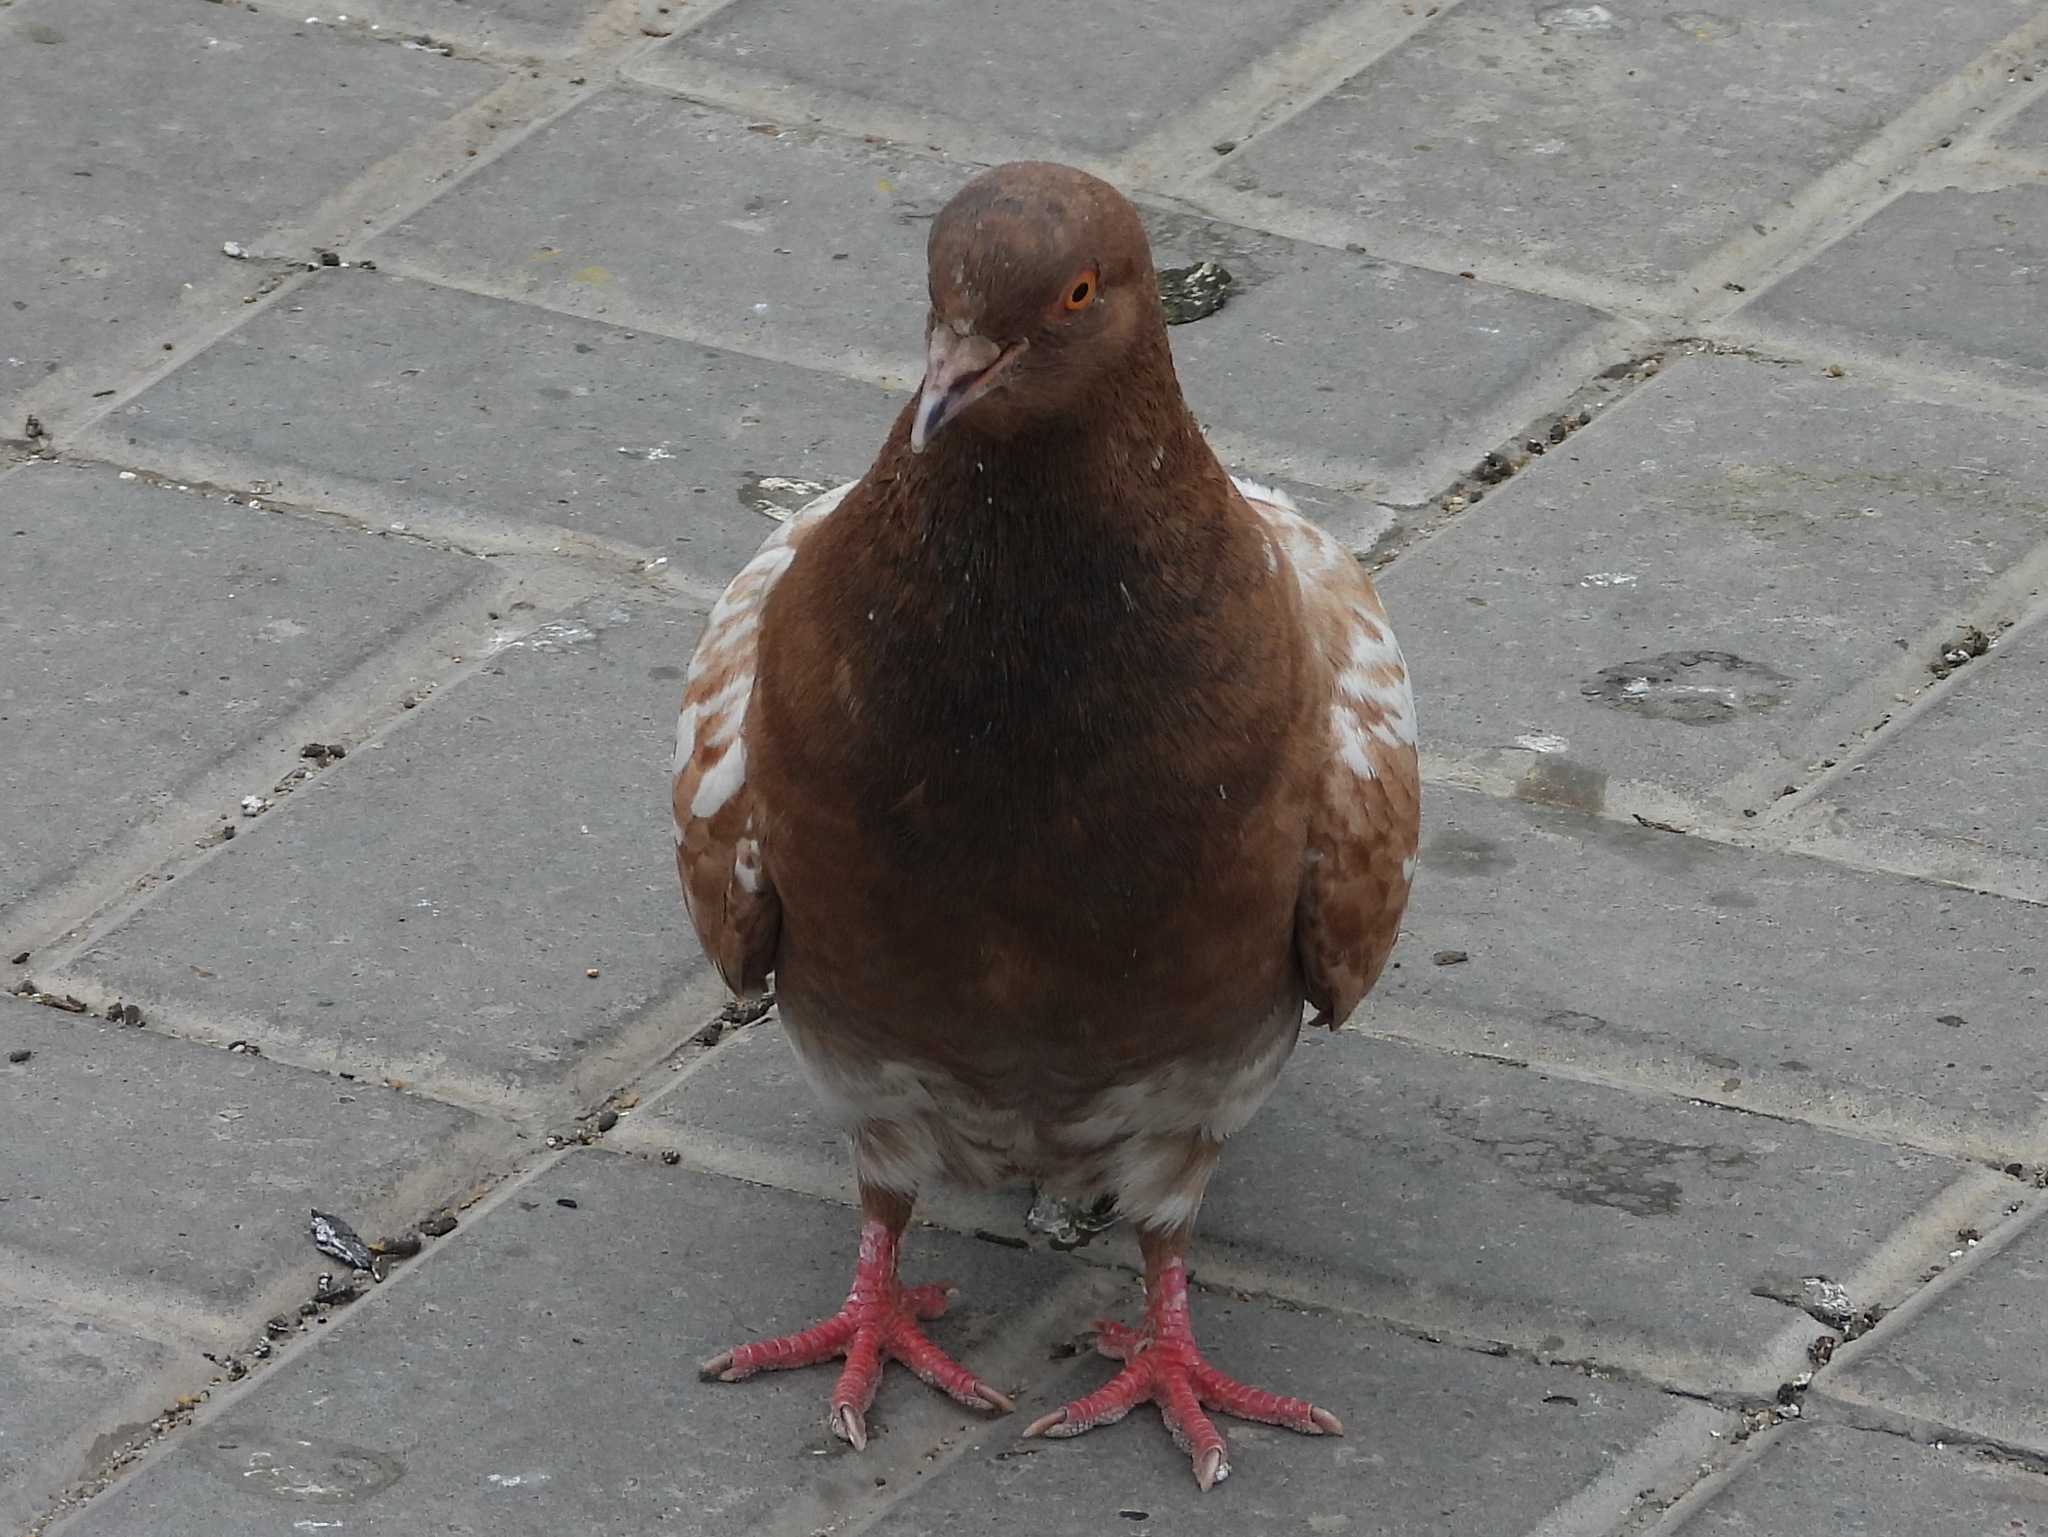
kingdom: Animalia
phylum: Chordata
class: Aves
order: Columbiformes
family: Columbidae
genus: Columba
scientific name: Columba livia
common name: Rock pigeon
